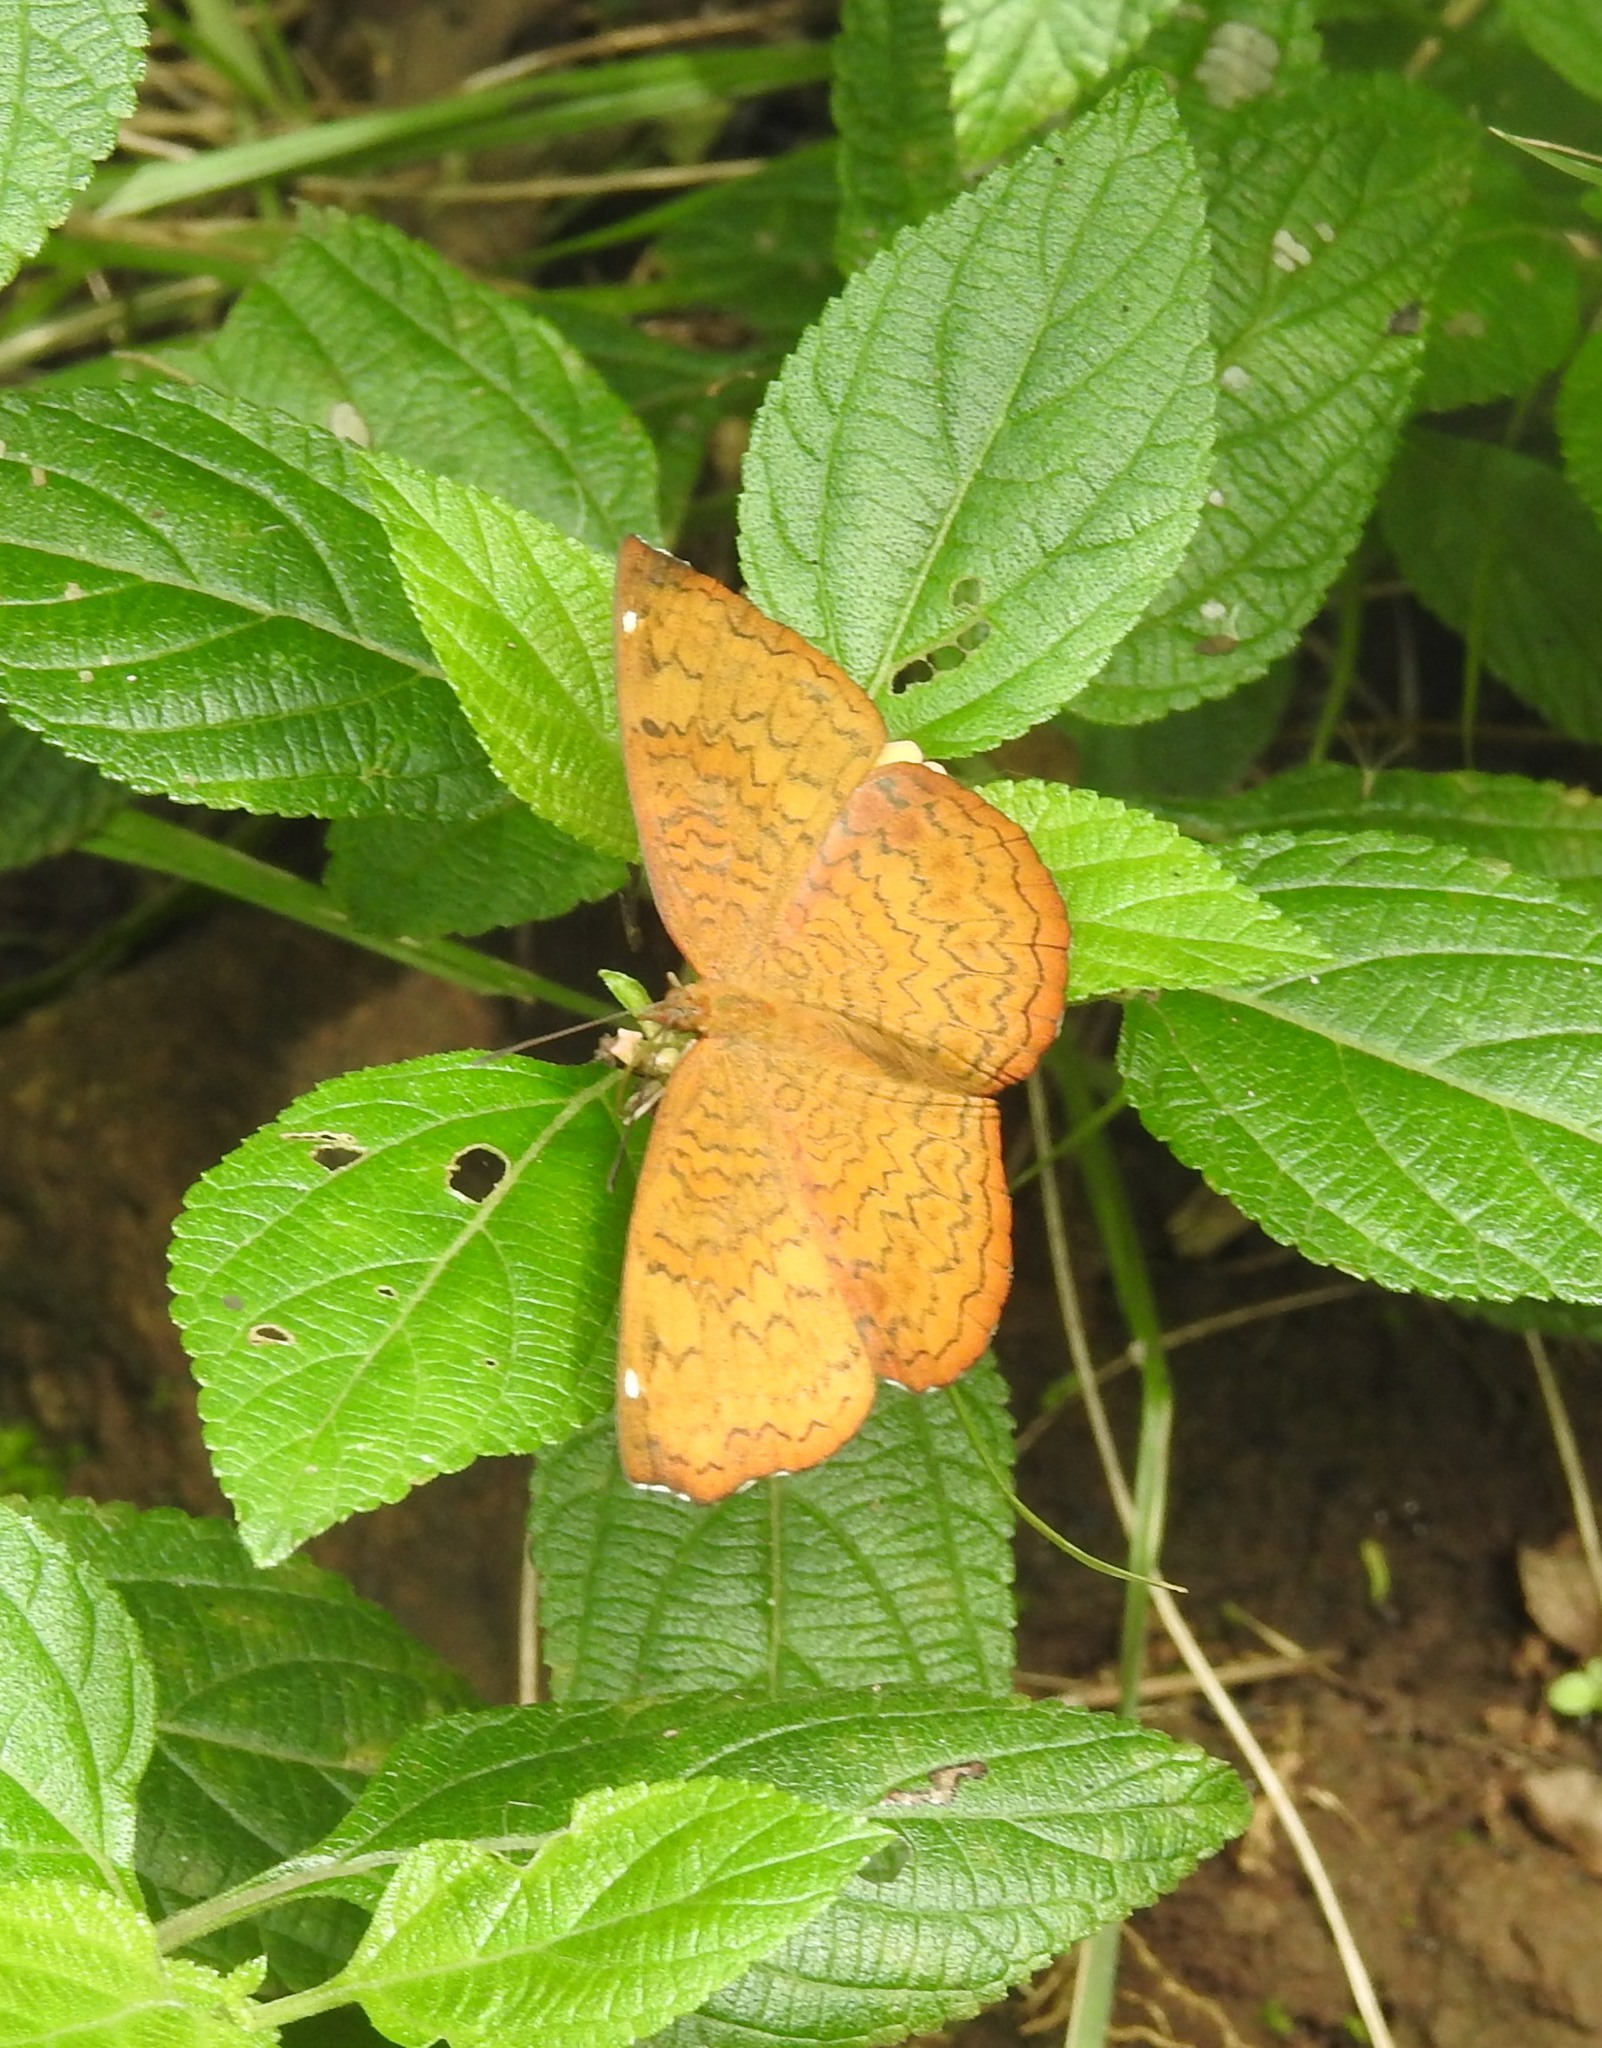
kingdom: Animalia
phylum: Arthropoda
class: Insecta
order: Lepidoptera
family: Nymphalidae
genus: Ariadne
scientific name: Ariadne merione
